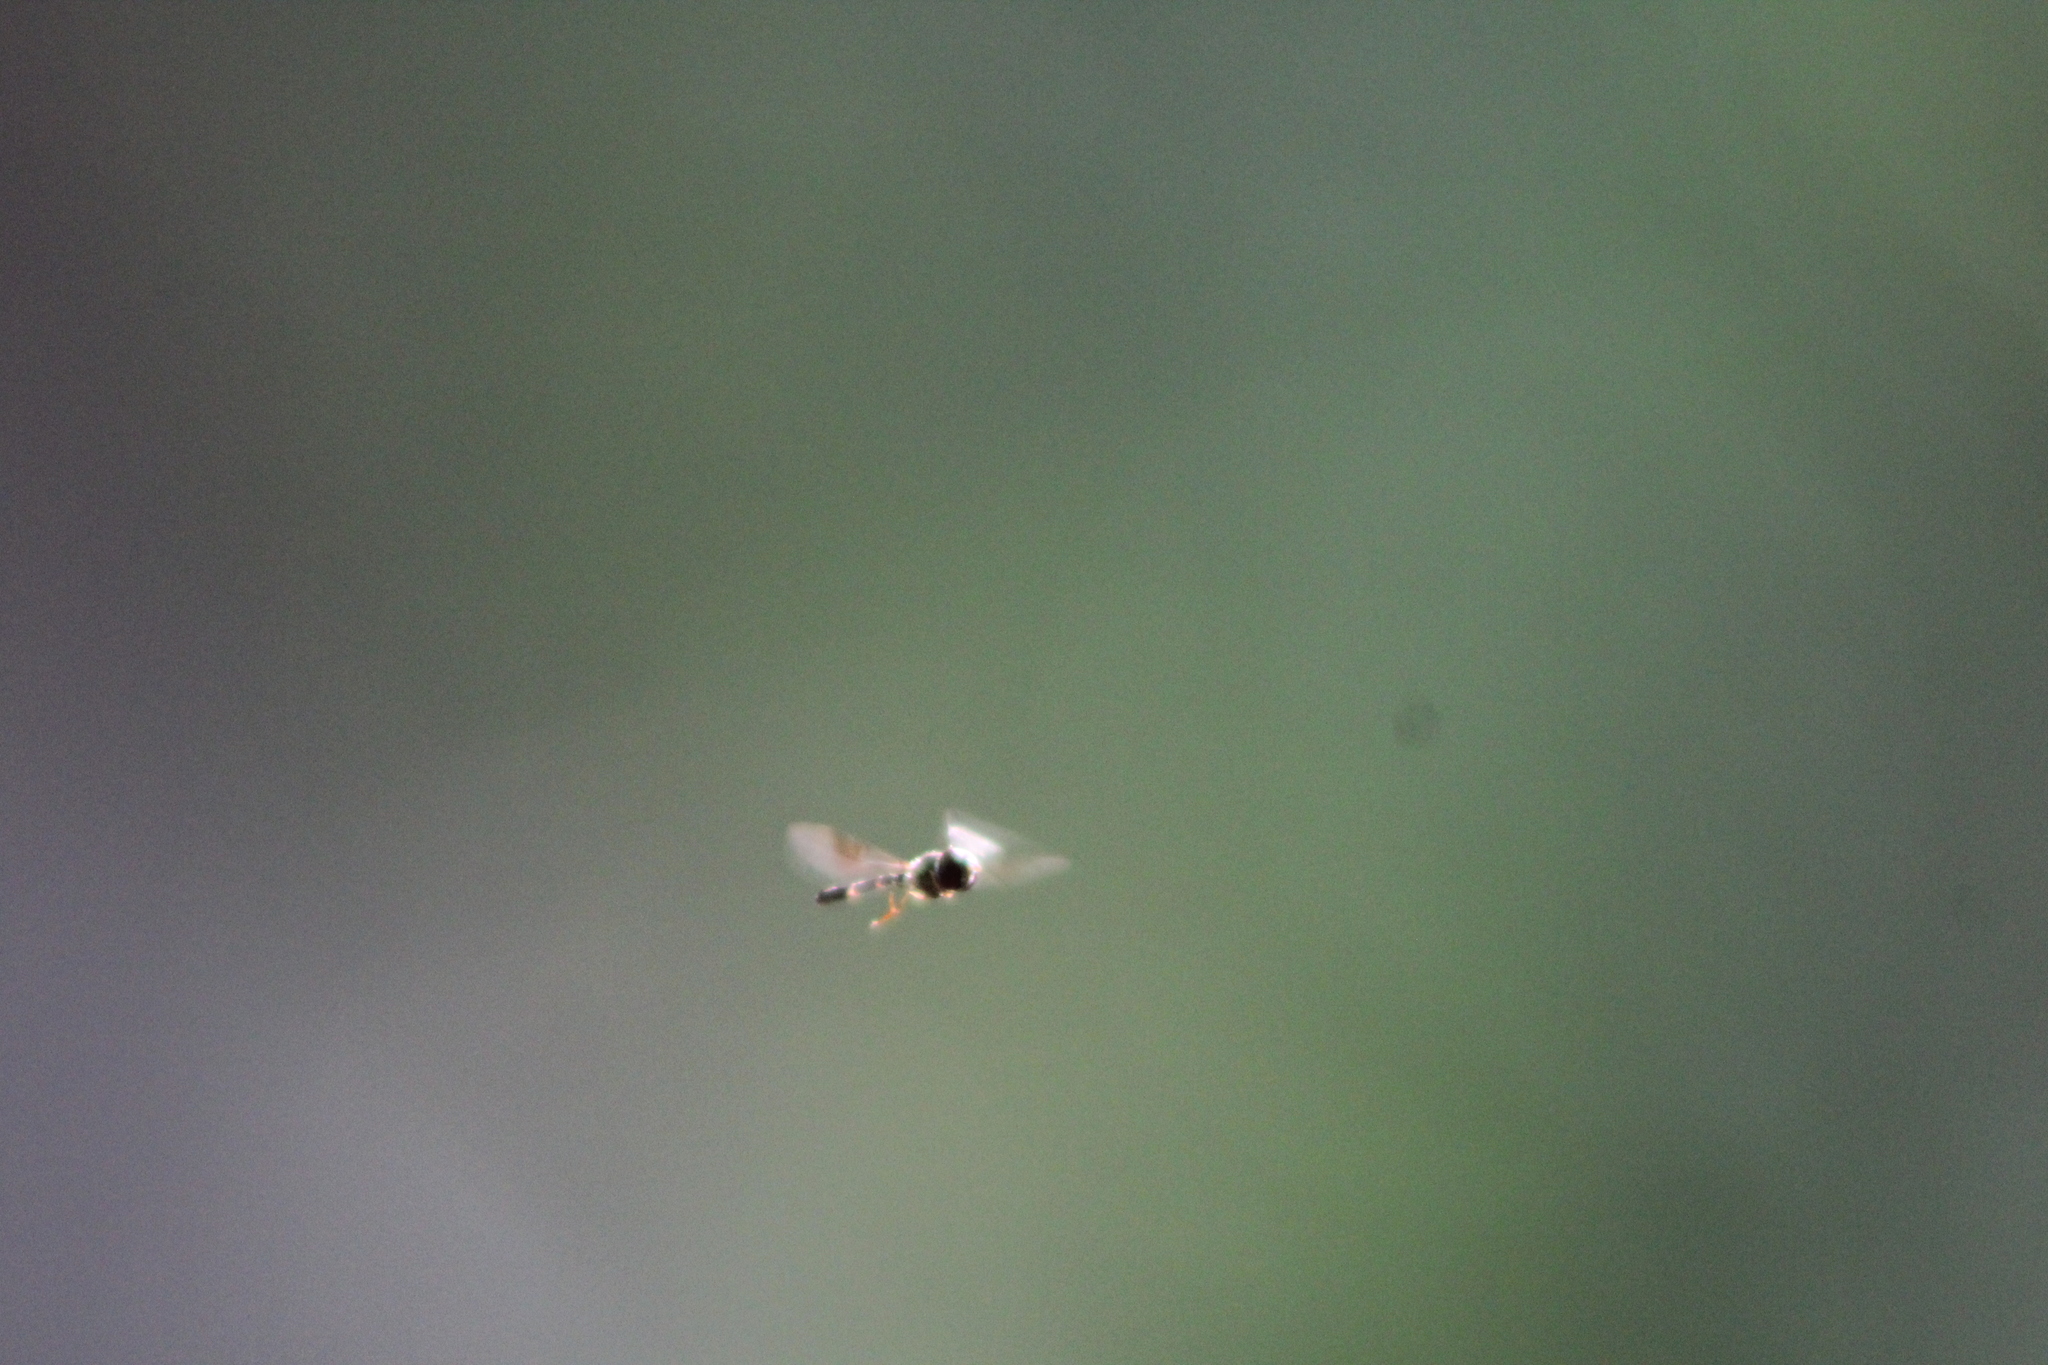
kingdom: Animalia
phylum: Arthropoda
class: Insecta
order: Diptera
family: Syrphidae
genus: Hypocritanus
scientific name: Hypocritanus fascipennis
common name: Eastern band-winged hover fly
